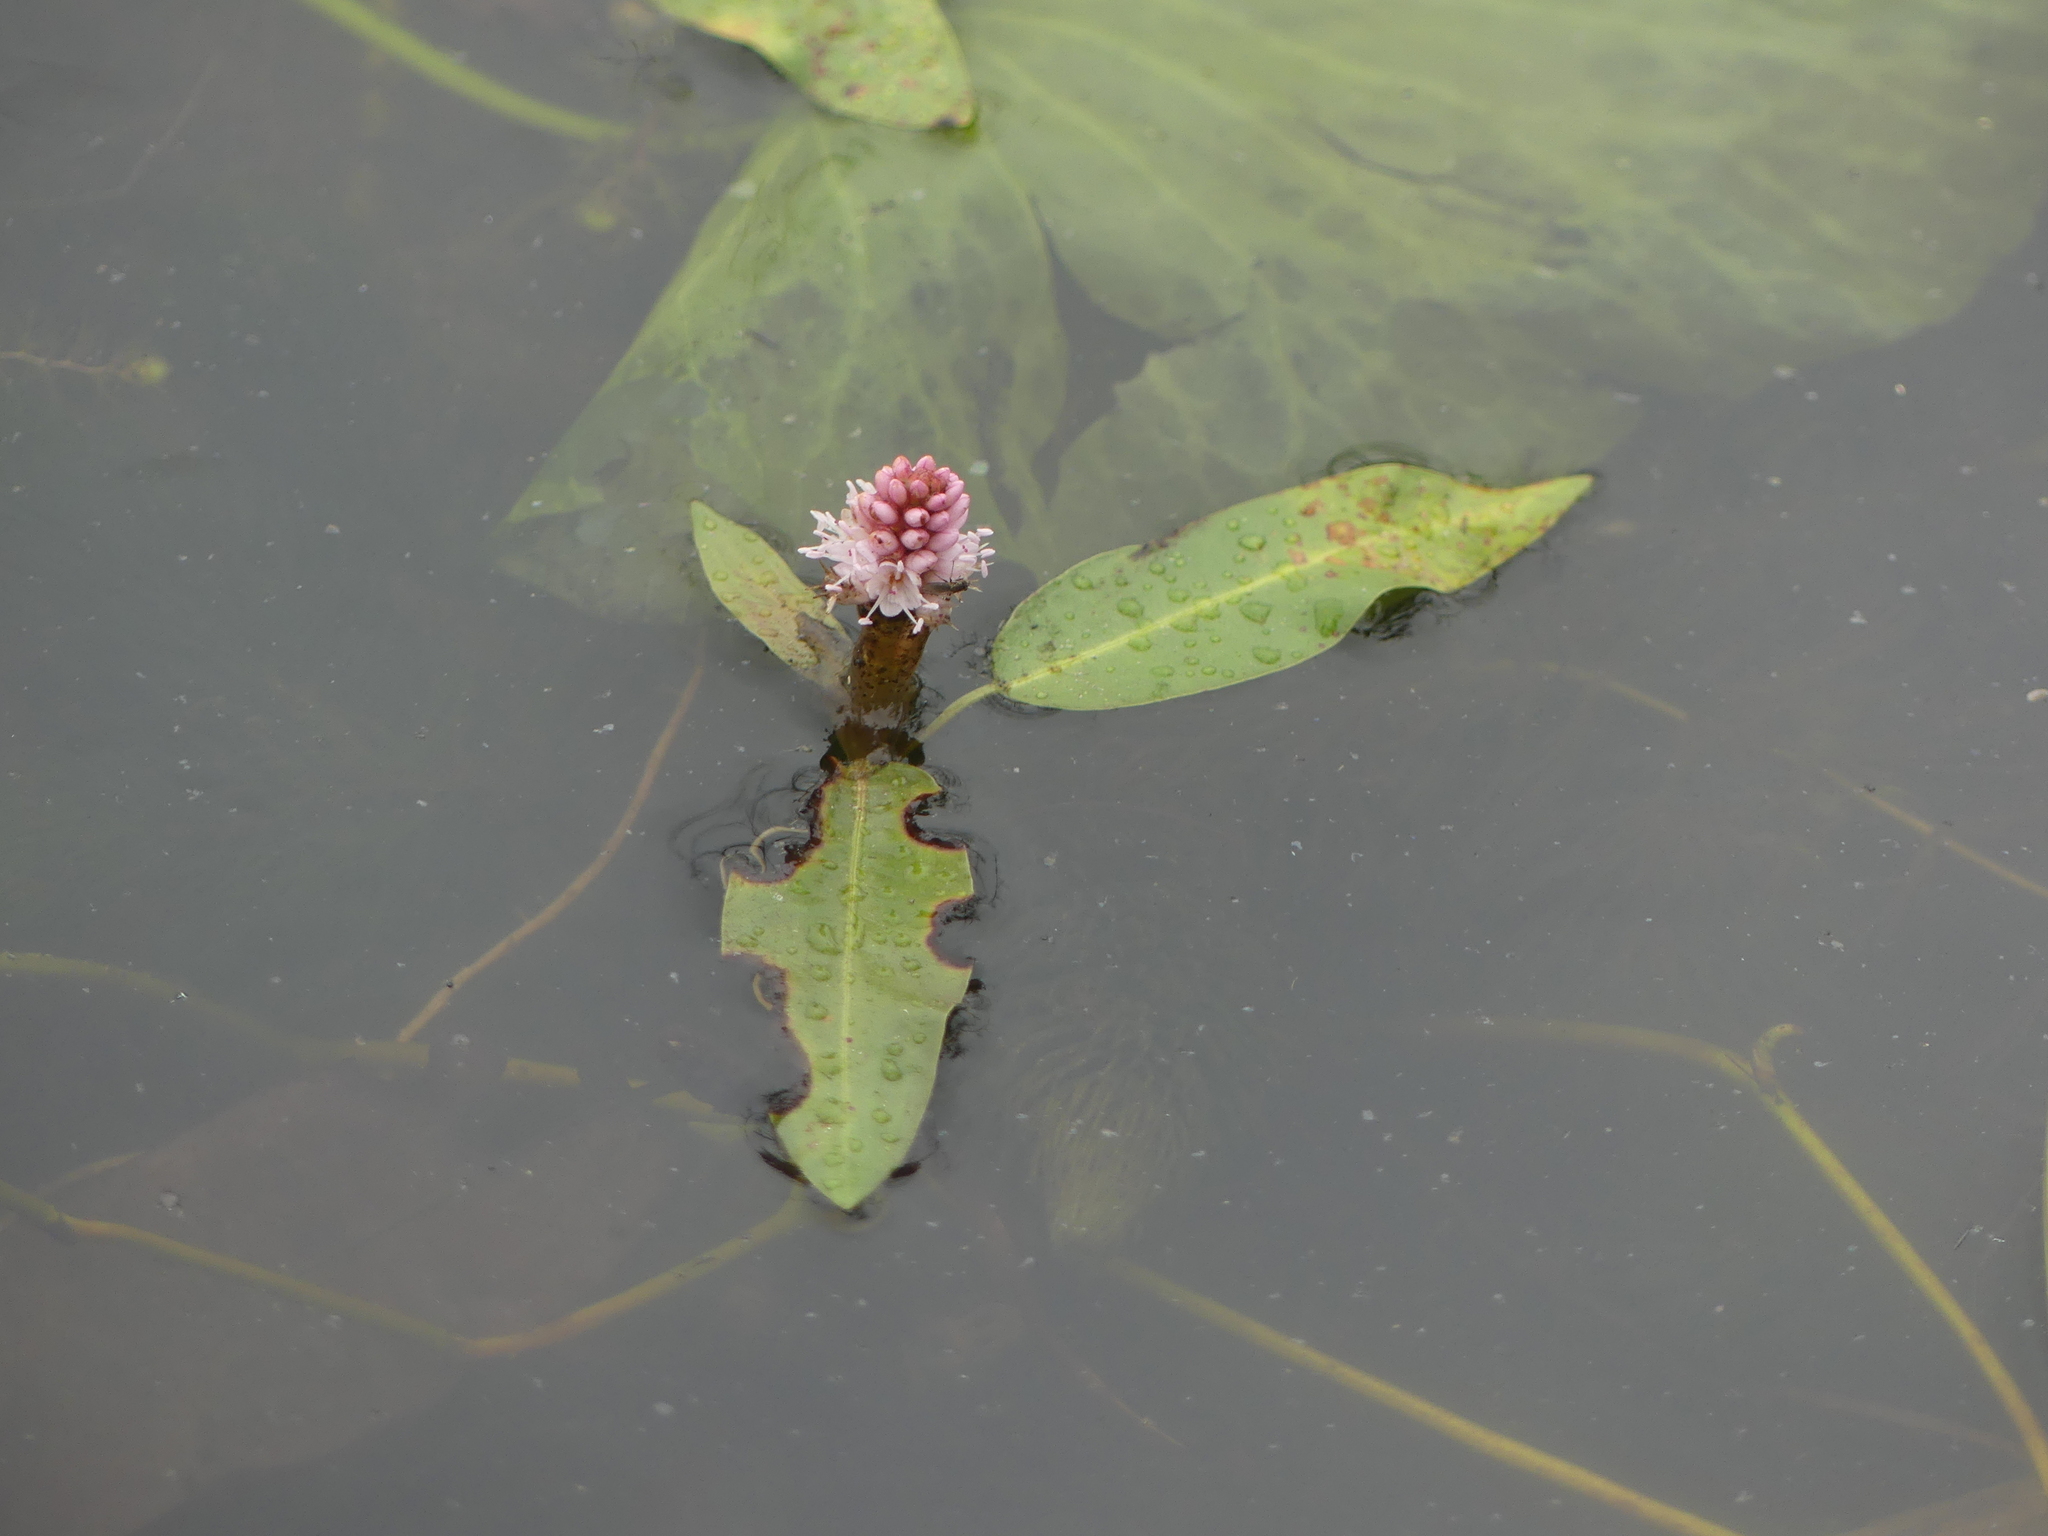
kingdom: Plantae
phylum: Tracheophyta
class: Magnoliopsida
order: Caryophyllales
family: Polygonaceae
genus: Persicaria
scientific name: Persicaria amphibia
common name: Amphibious bistort
